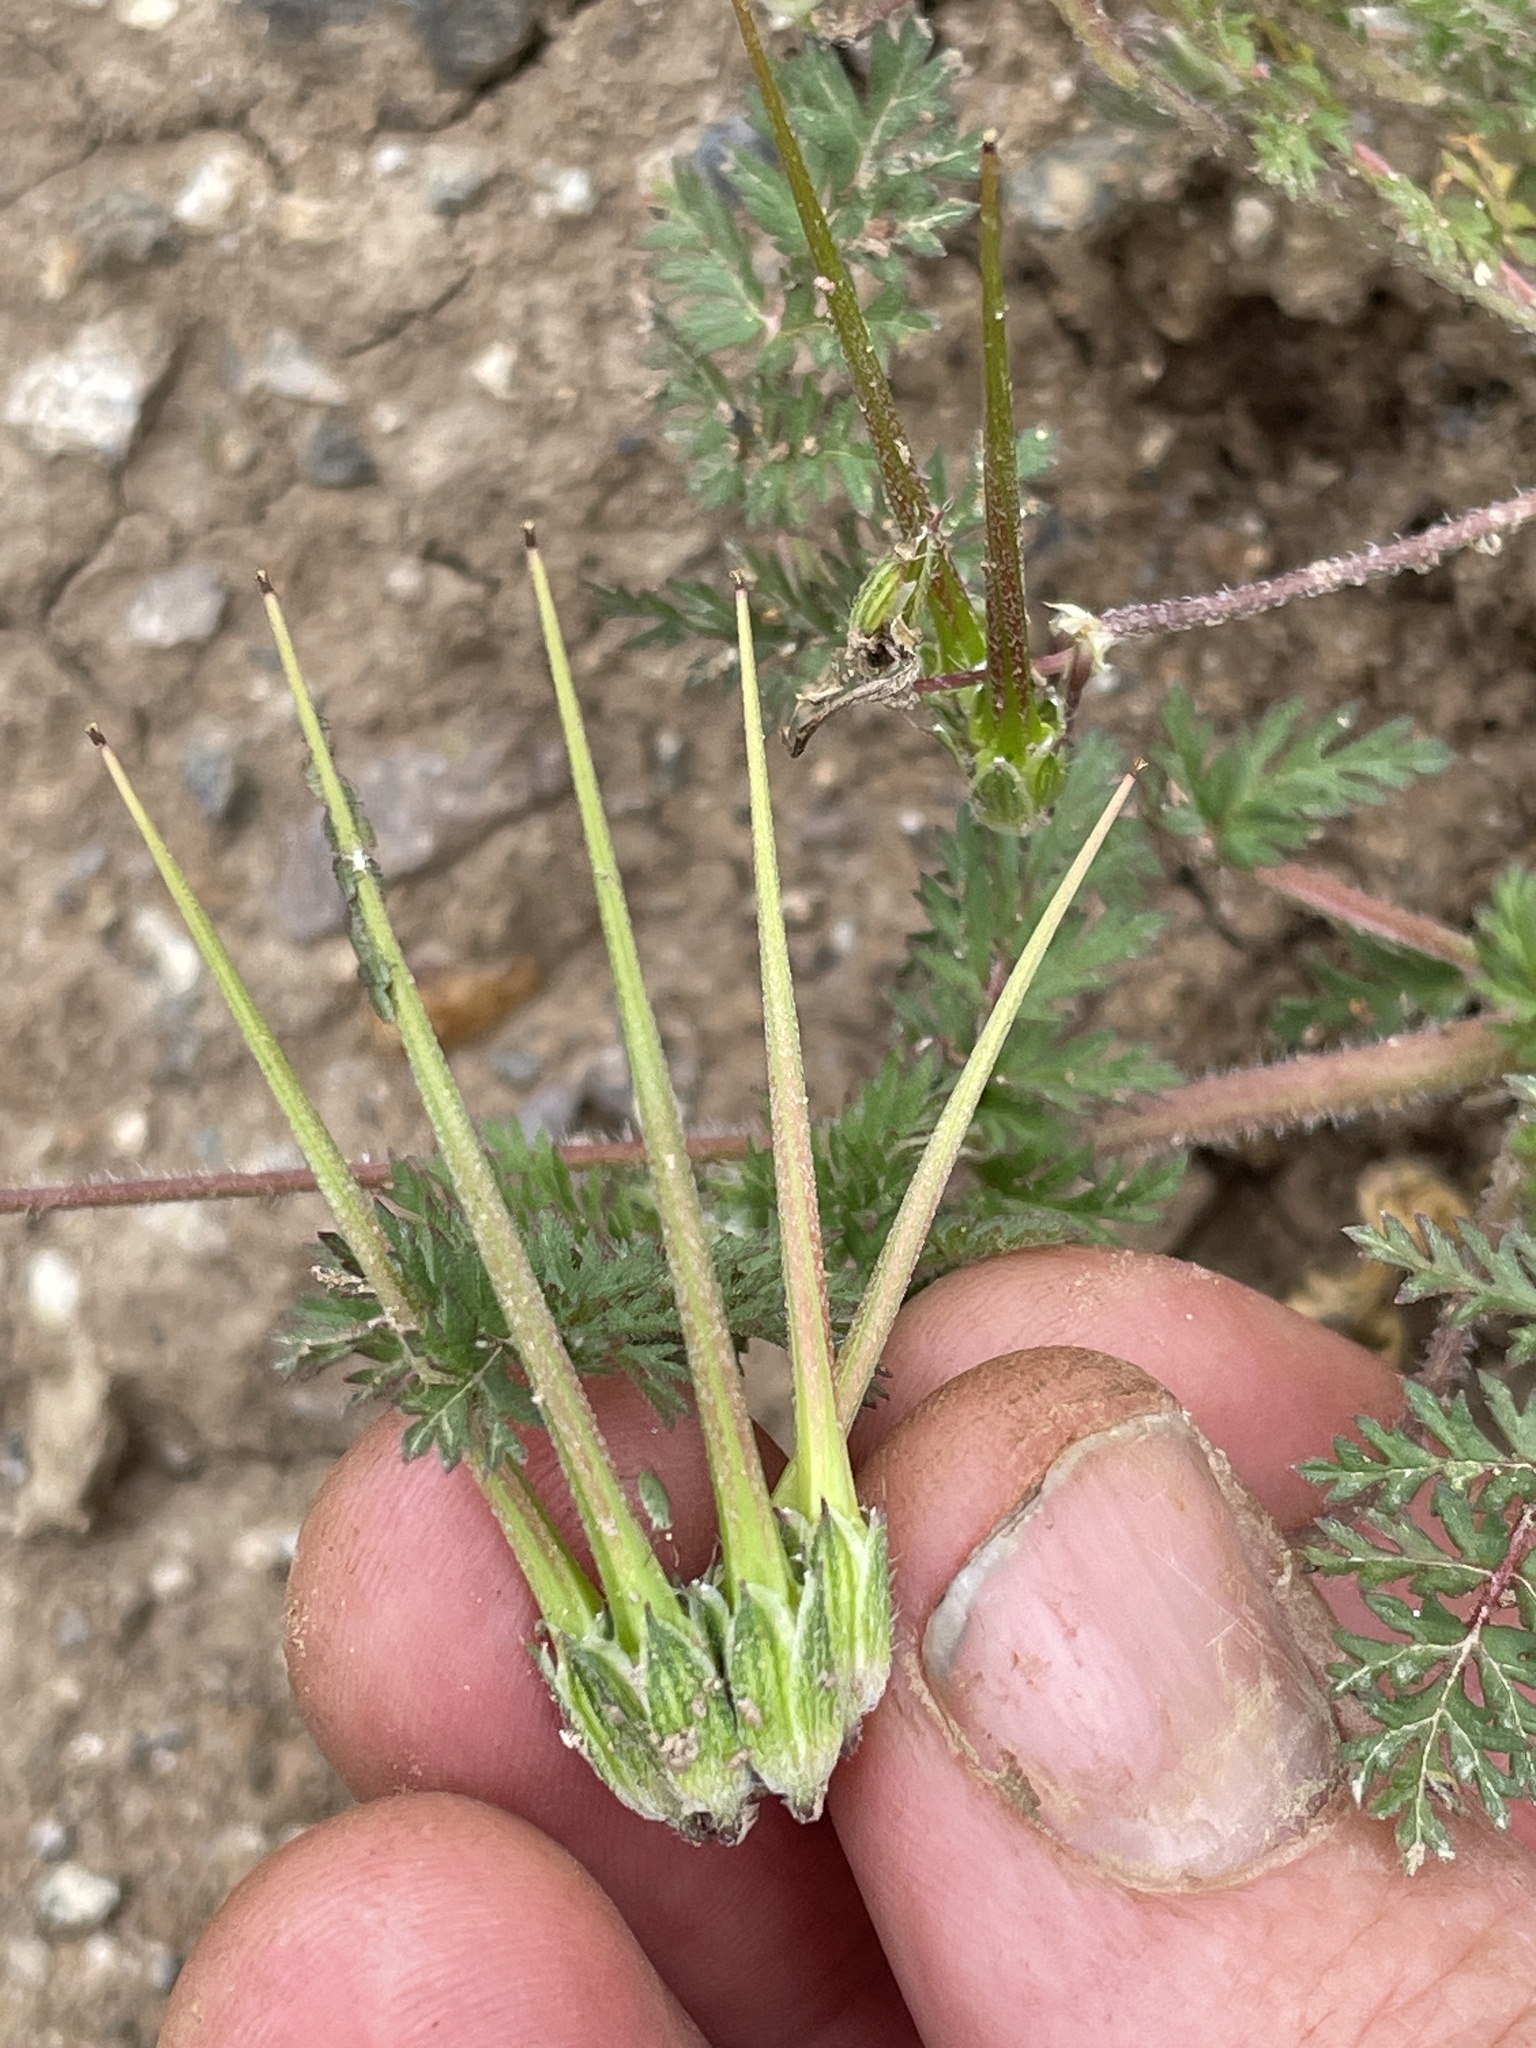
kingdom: Plantae
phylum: Tracheophyta
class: Magnoliopsida
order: Geraniales
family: Geraniaceae
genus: Erodium
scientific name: Erodium cicutarium
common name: Common stork's-bill
